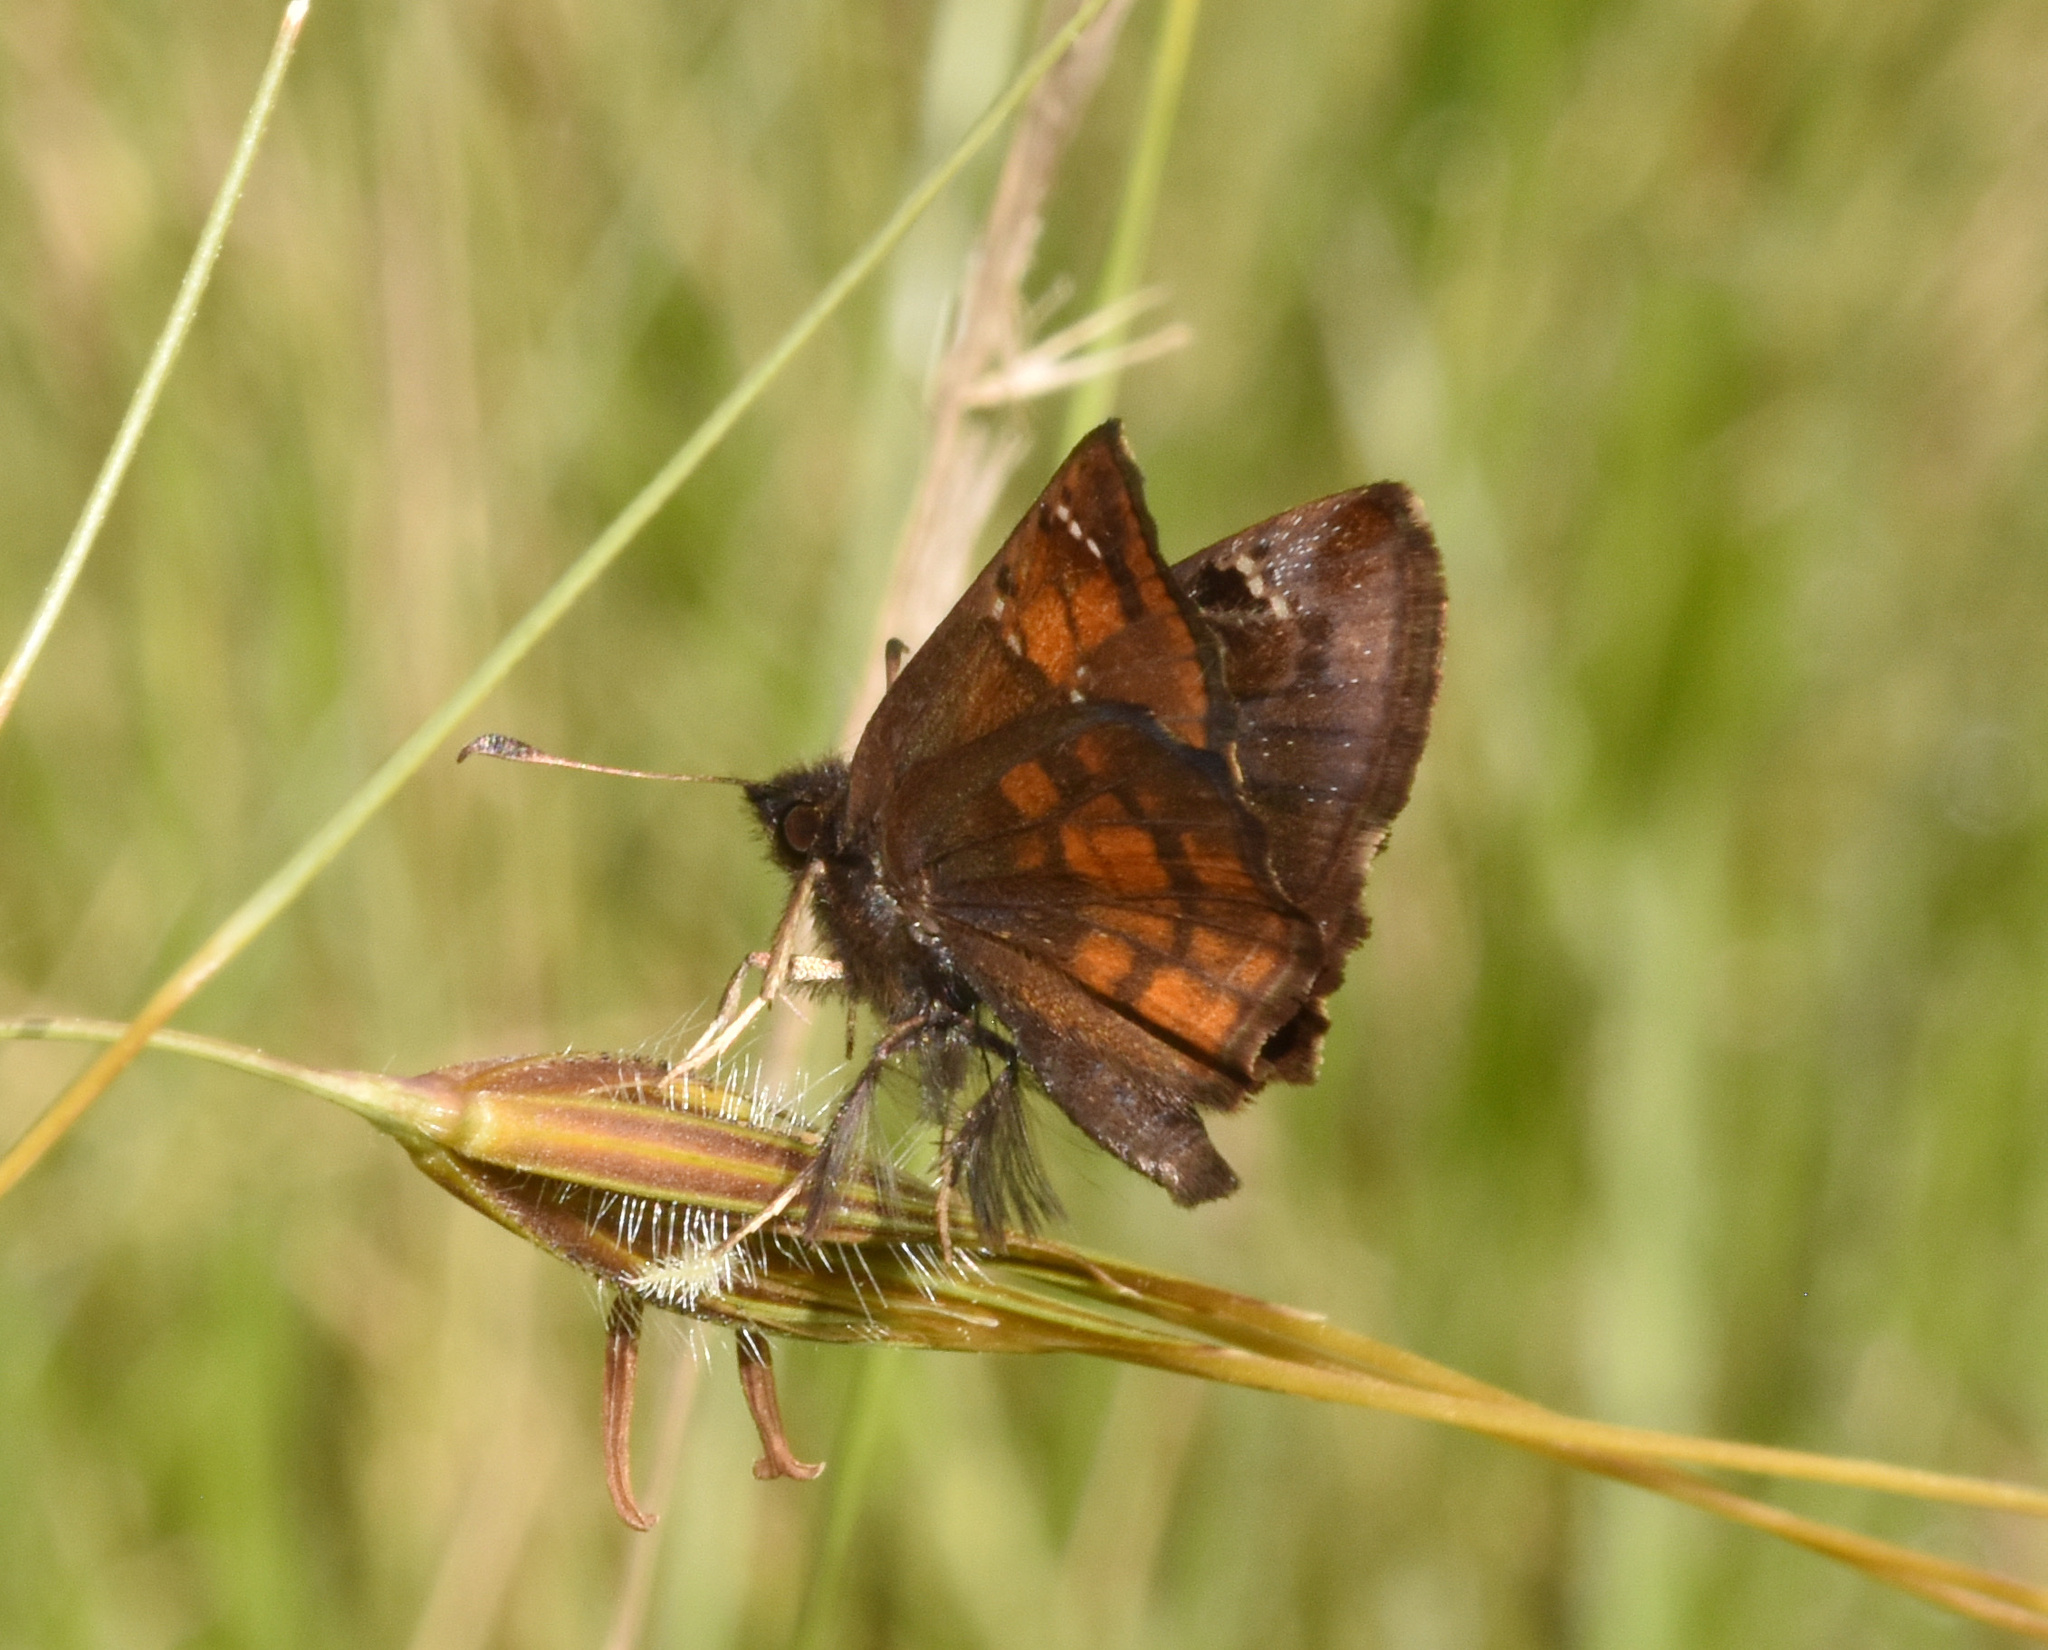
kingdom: Animalia
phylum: Arthropoda
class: Insecta
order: Lepidoptera
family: Hesperiidae
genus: Eretis
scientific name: Eretis umbra
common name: Small marbled elf
